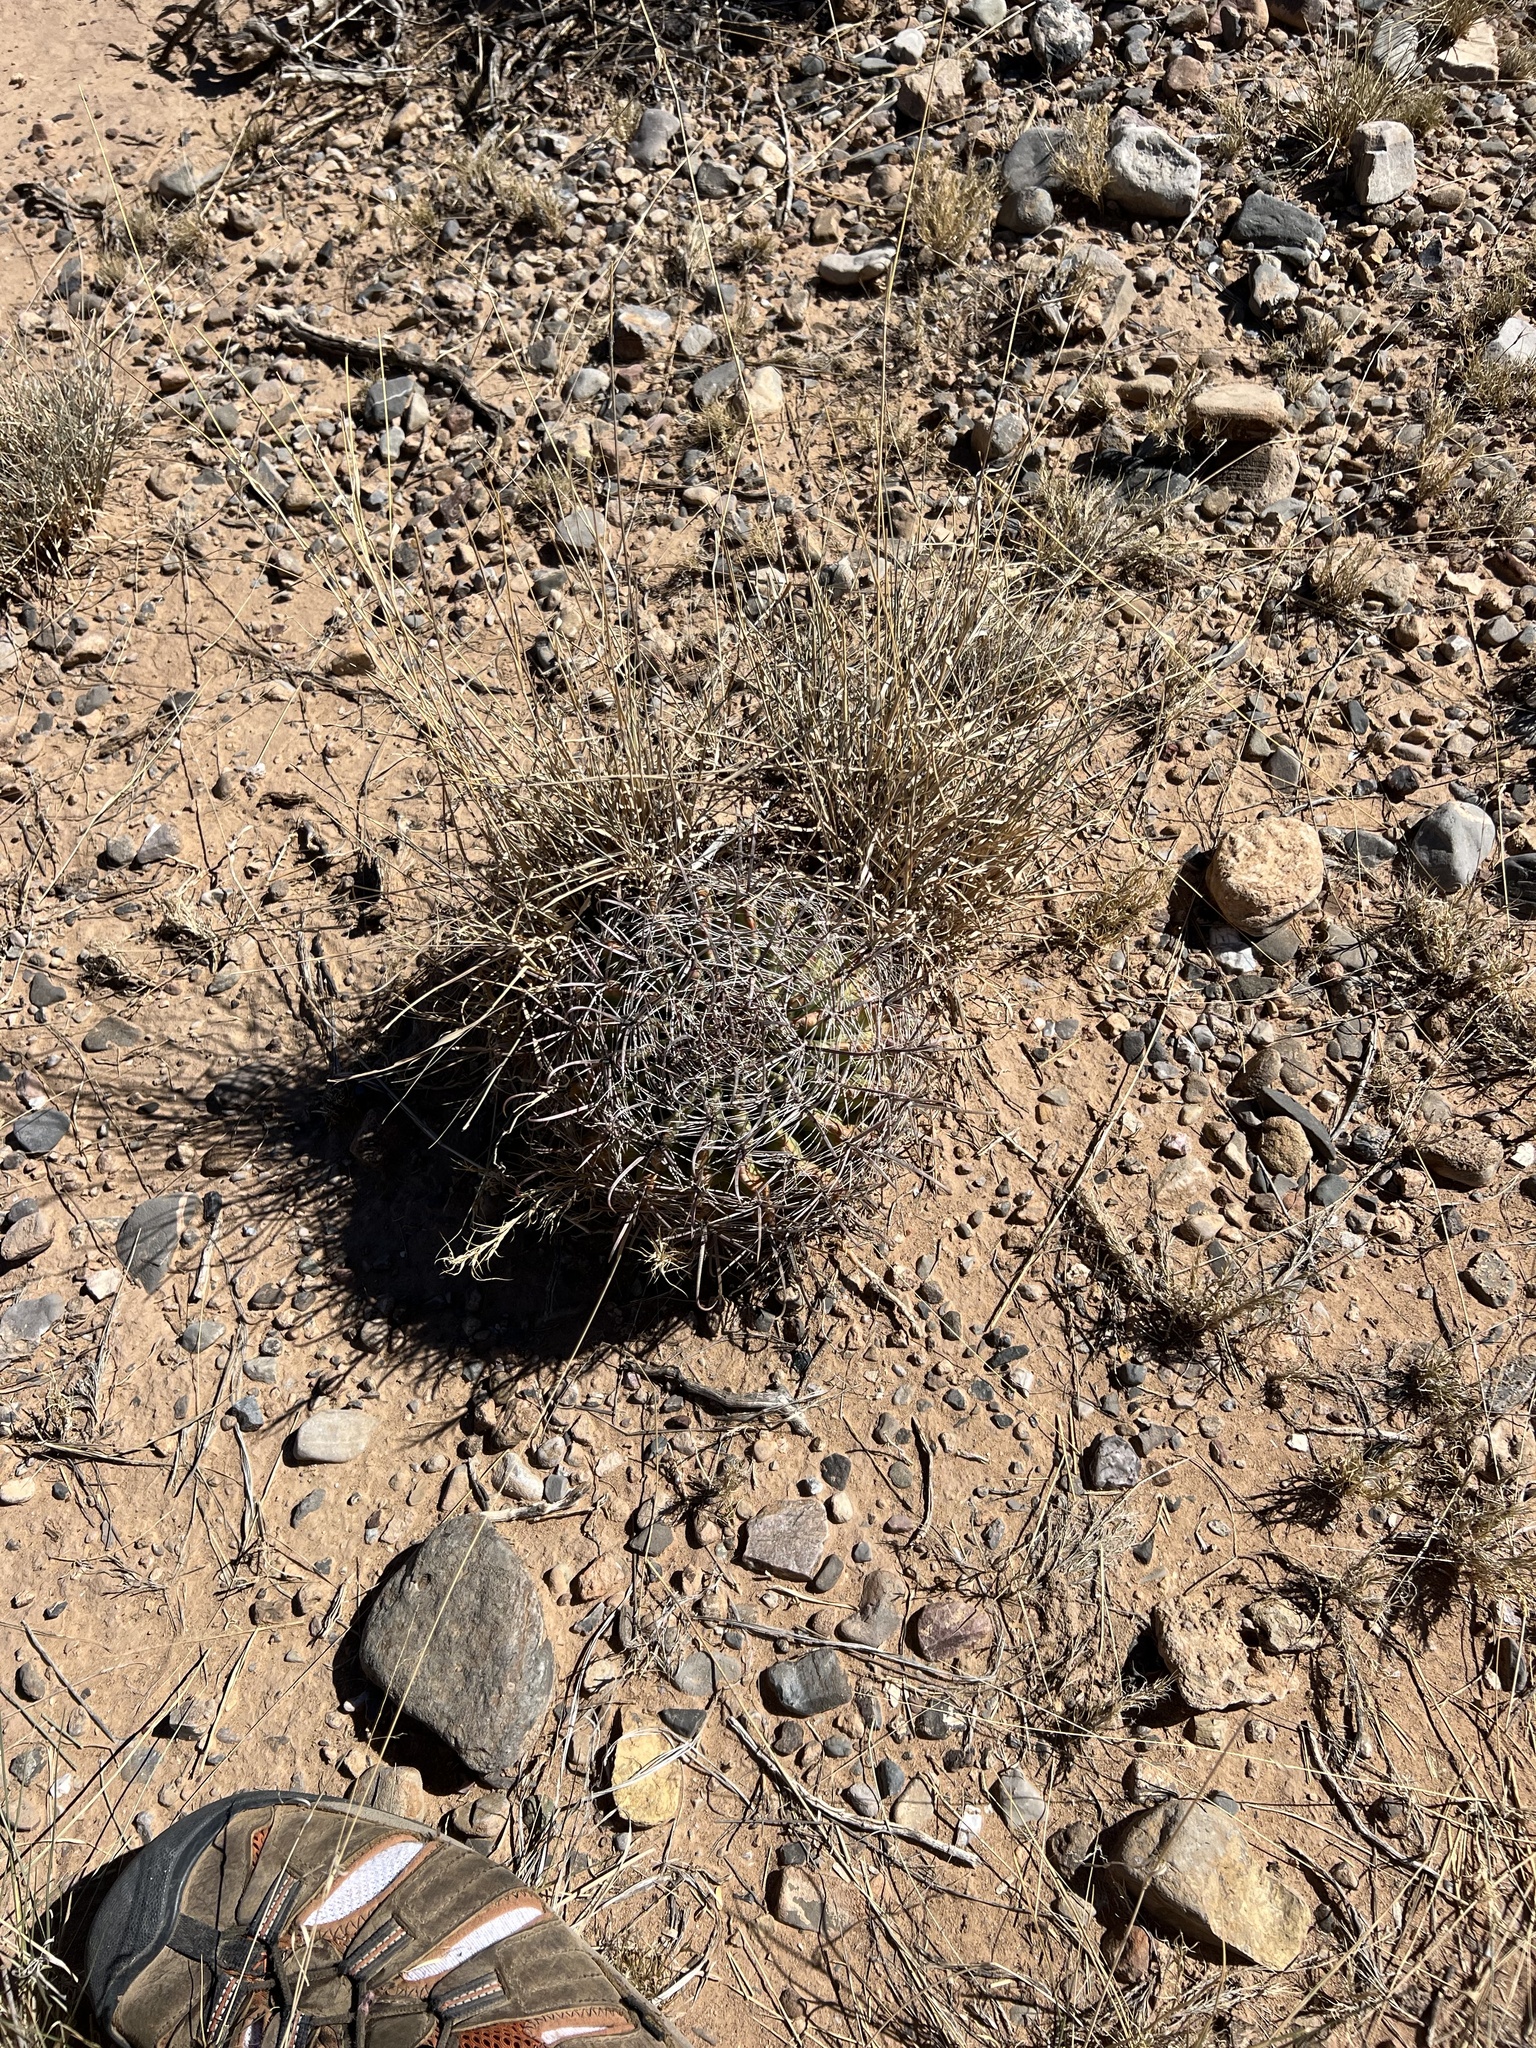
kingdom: Plantae
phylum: Tracheophyta
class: Magnoliopsida
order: Caryophyllales
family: Cactaceae
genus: Ferocactus
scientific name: Ferocactus wislizeni
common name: Candy barrel cactus
